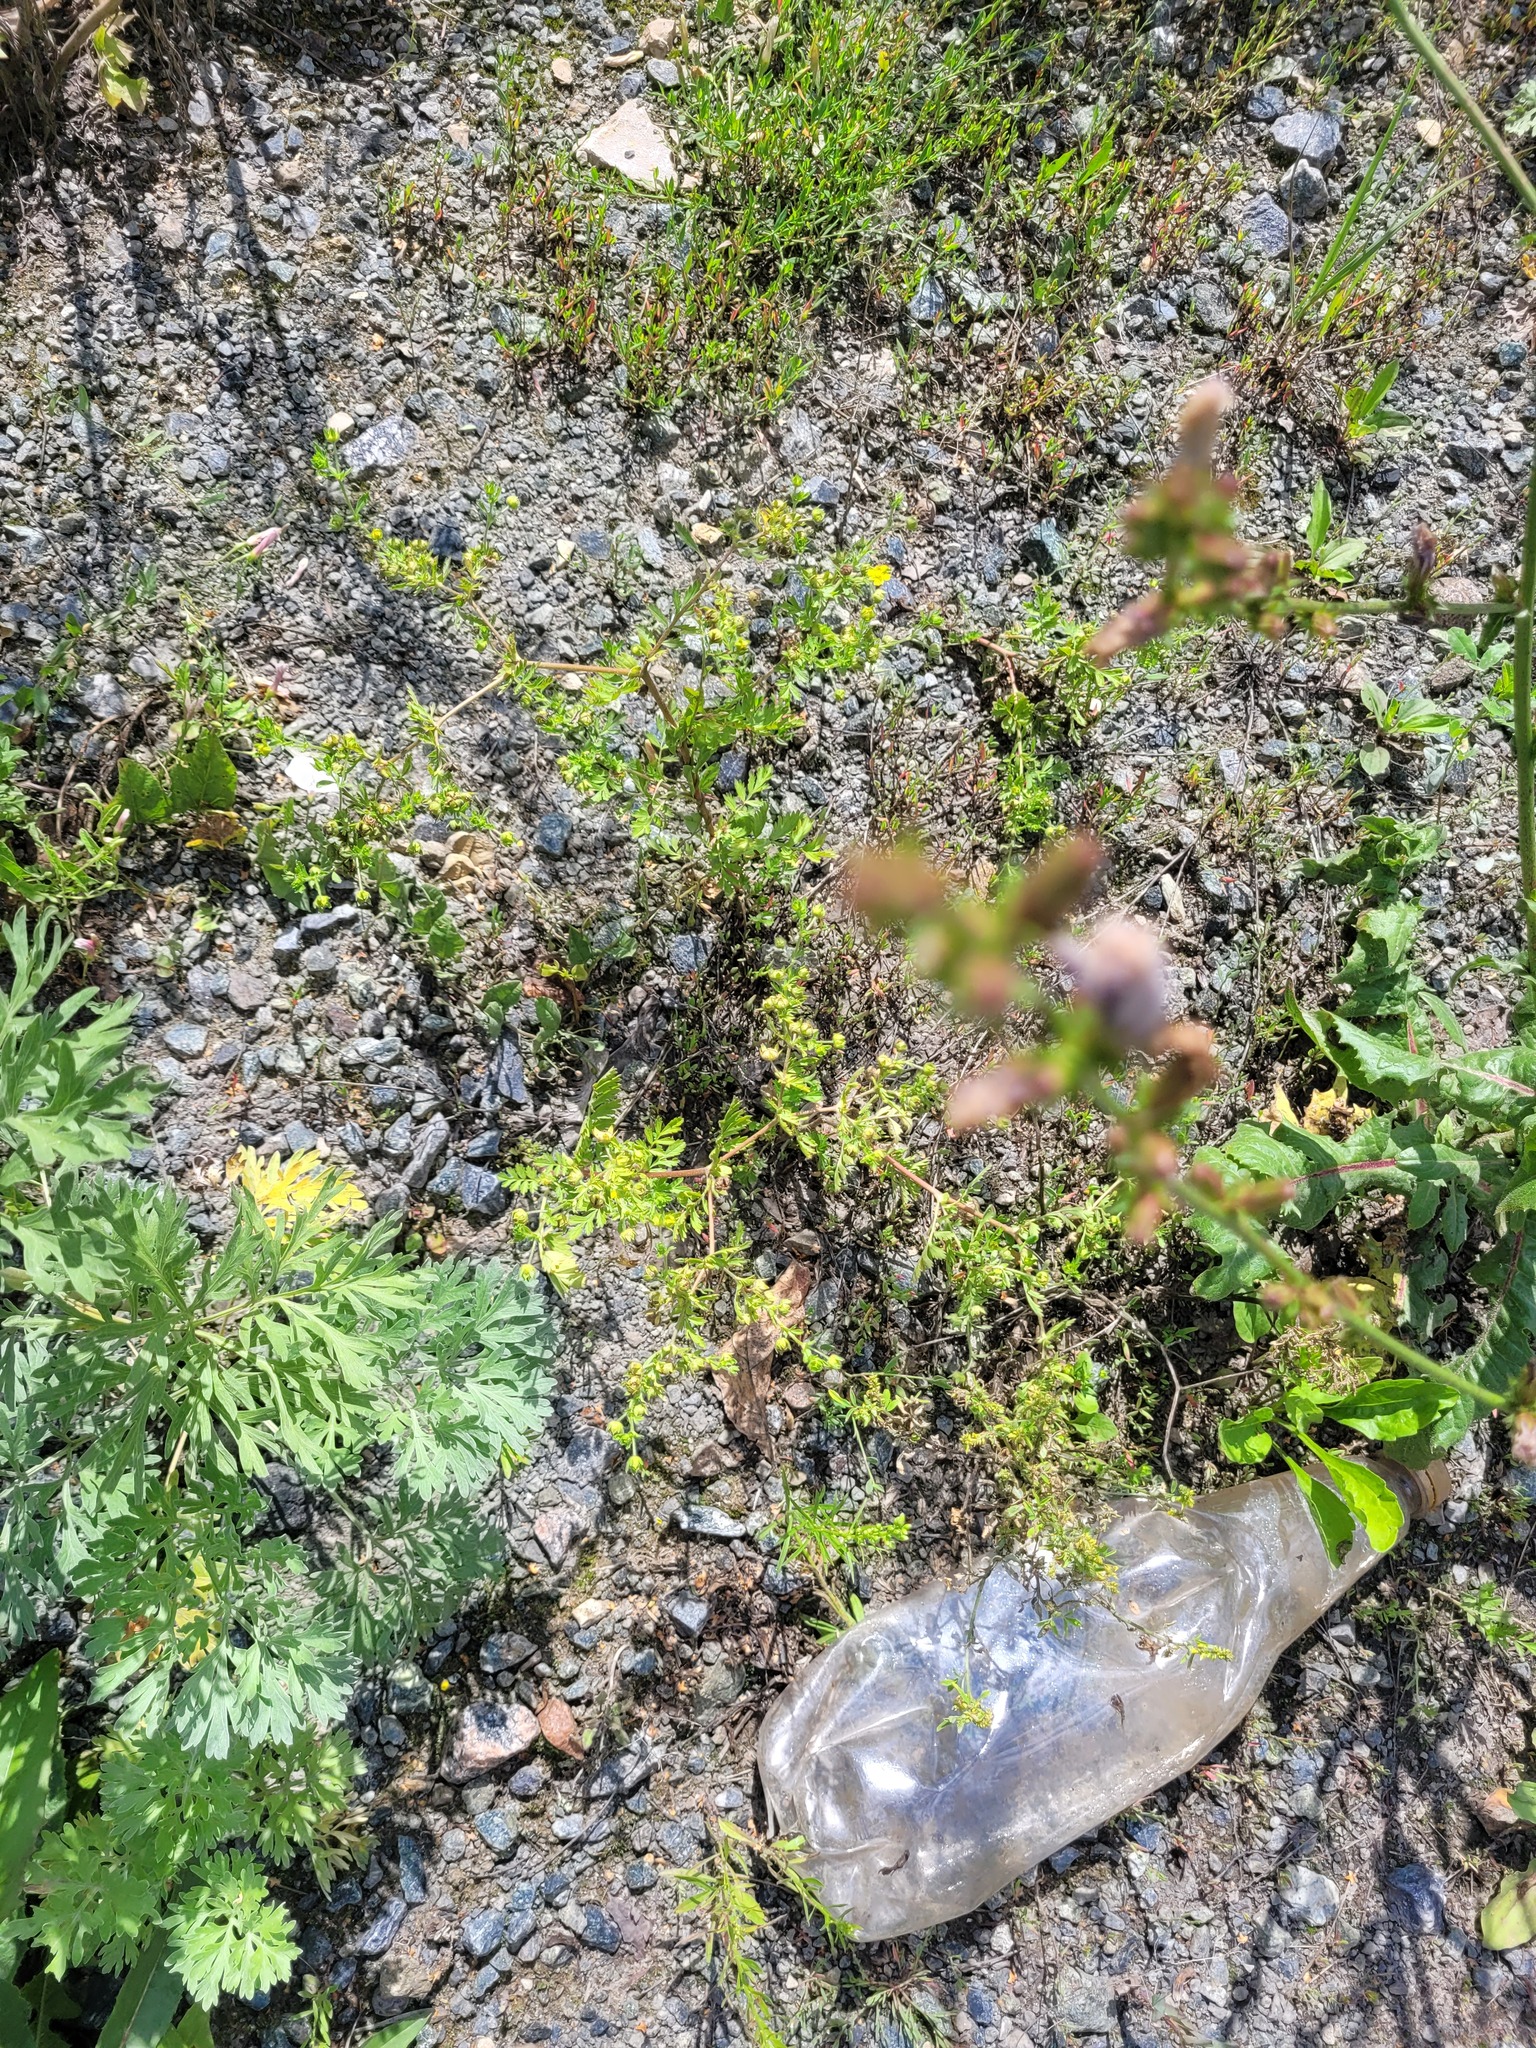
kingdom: Plantae
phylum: Tracheophyta
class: Magnoliopsida
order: Rosales
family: Rosaceae
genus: Potentilla
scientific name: Potentilla supina
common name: Prostrate cinquefoil
